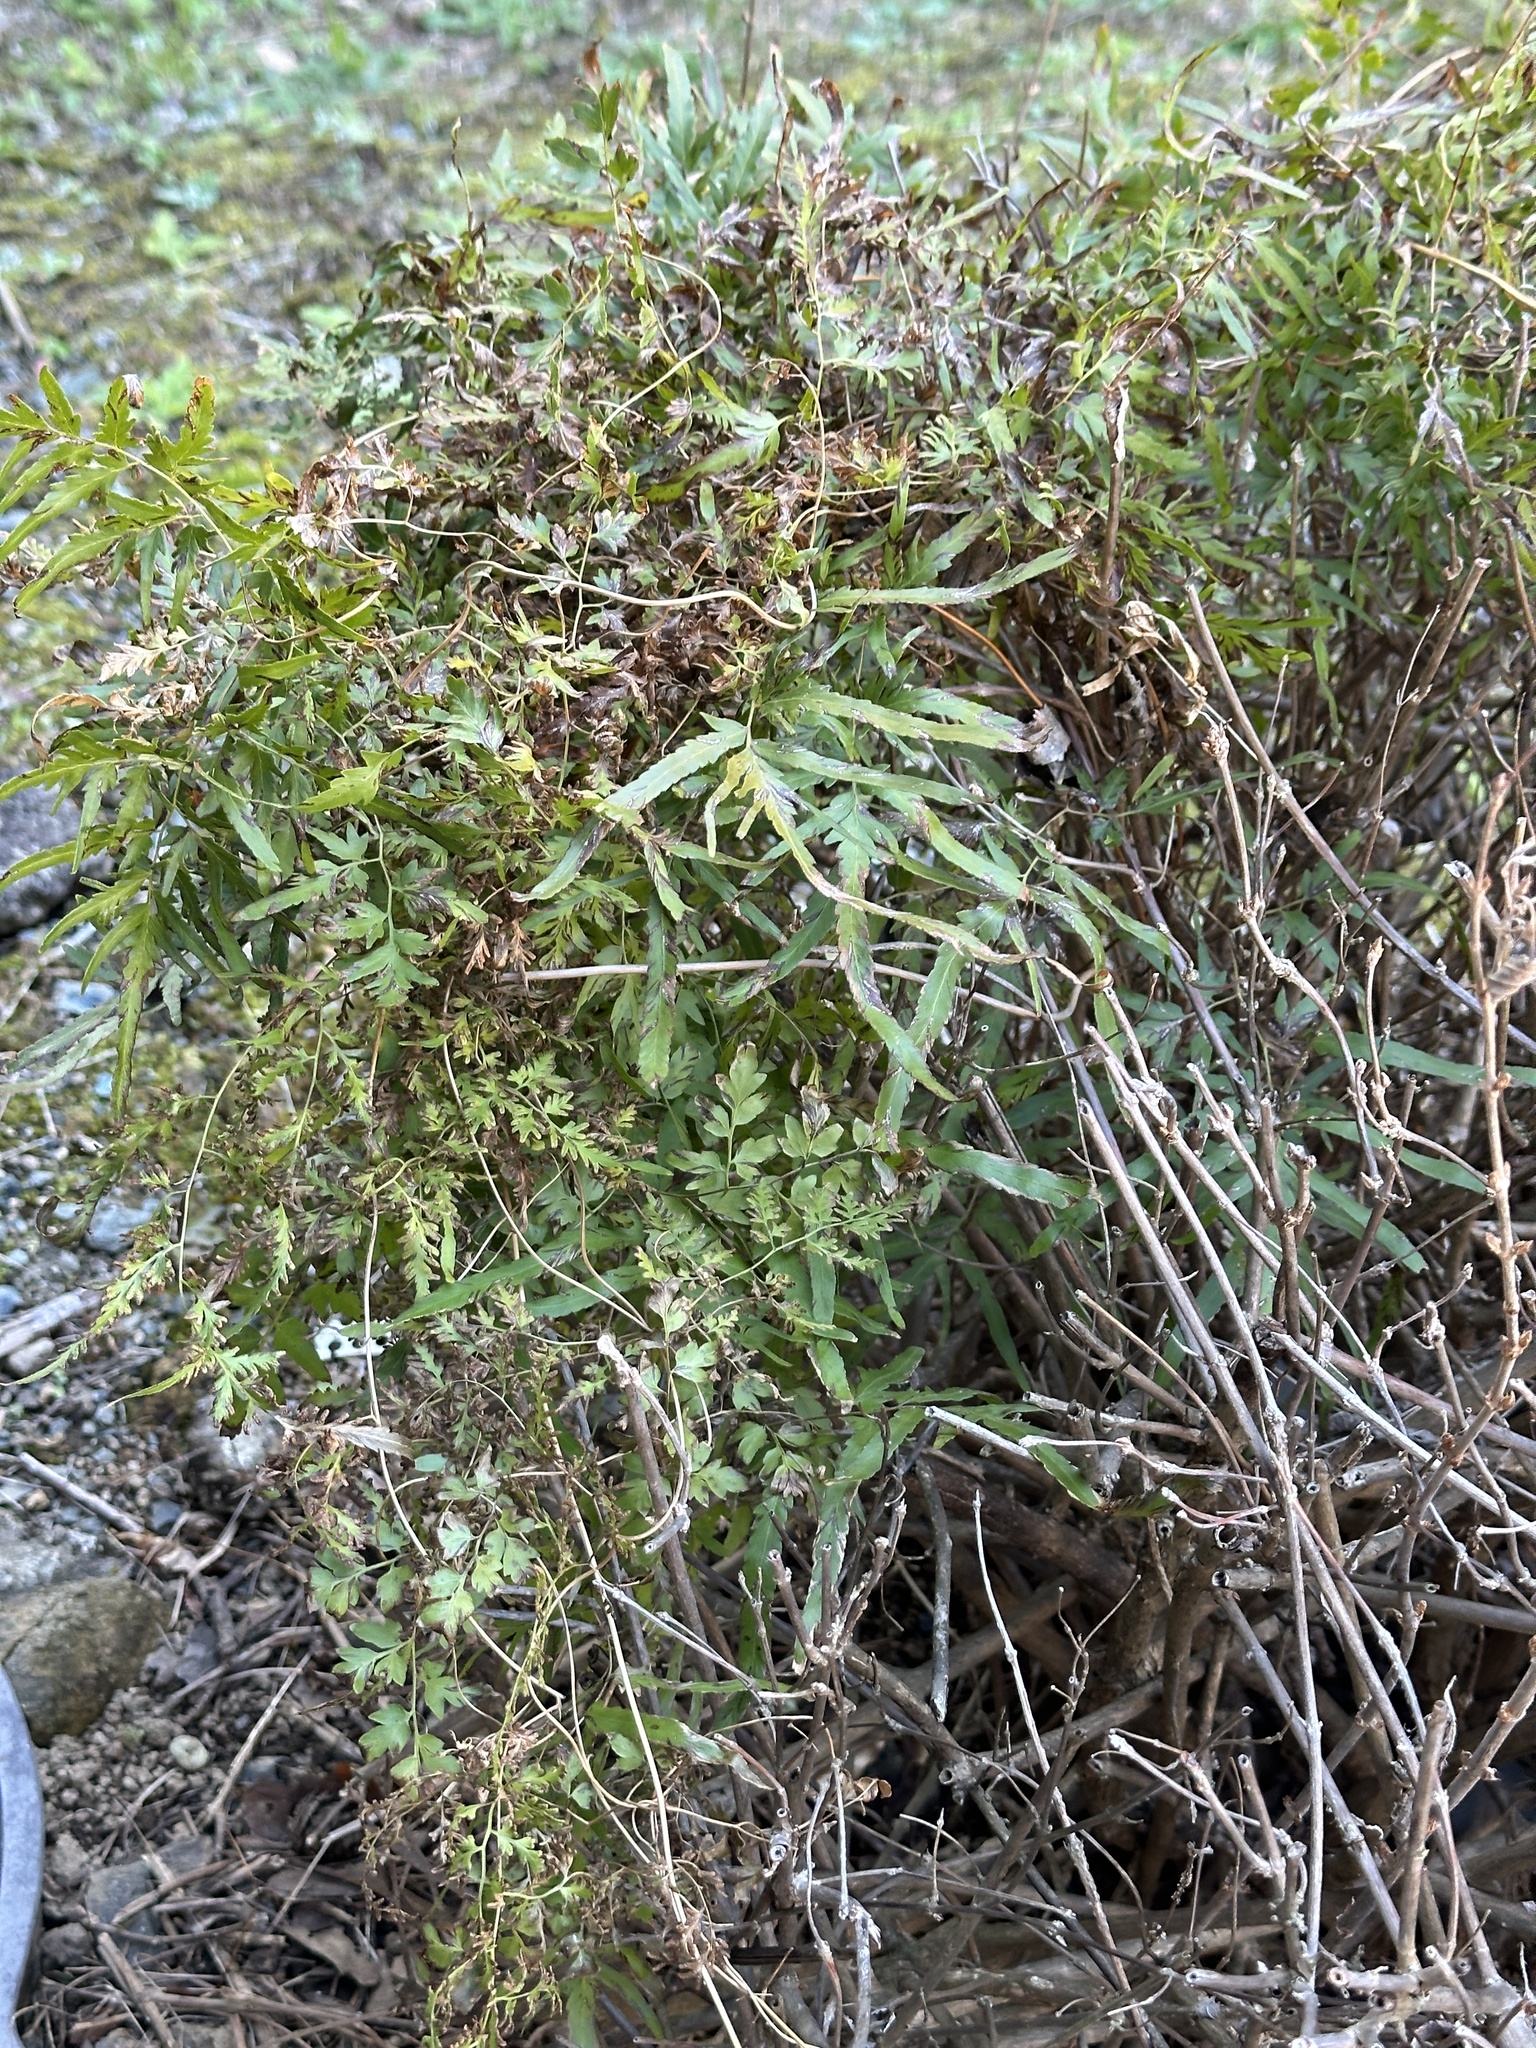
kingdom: Plantae
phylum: Tracheophyta
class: Polypodiopsida
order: Schizaeales
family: Lygodiaceae
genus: Lygodium
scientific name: Lygodium japonicum
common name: Japanese climbing fern
